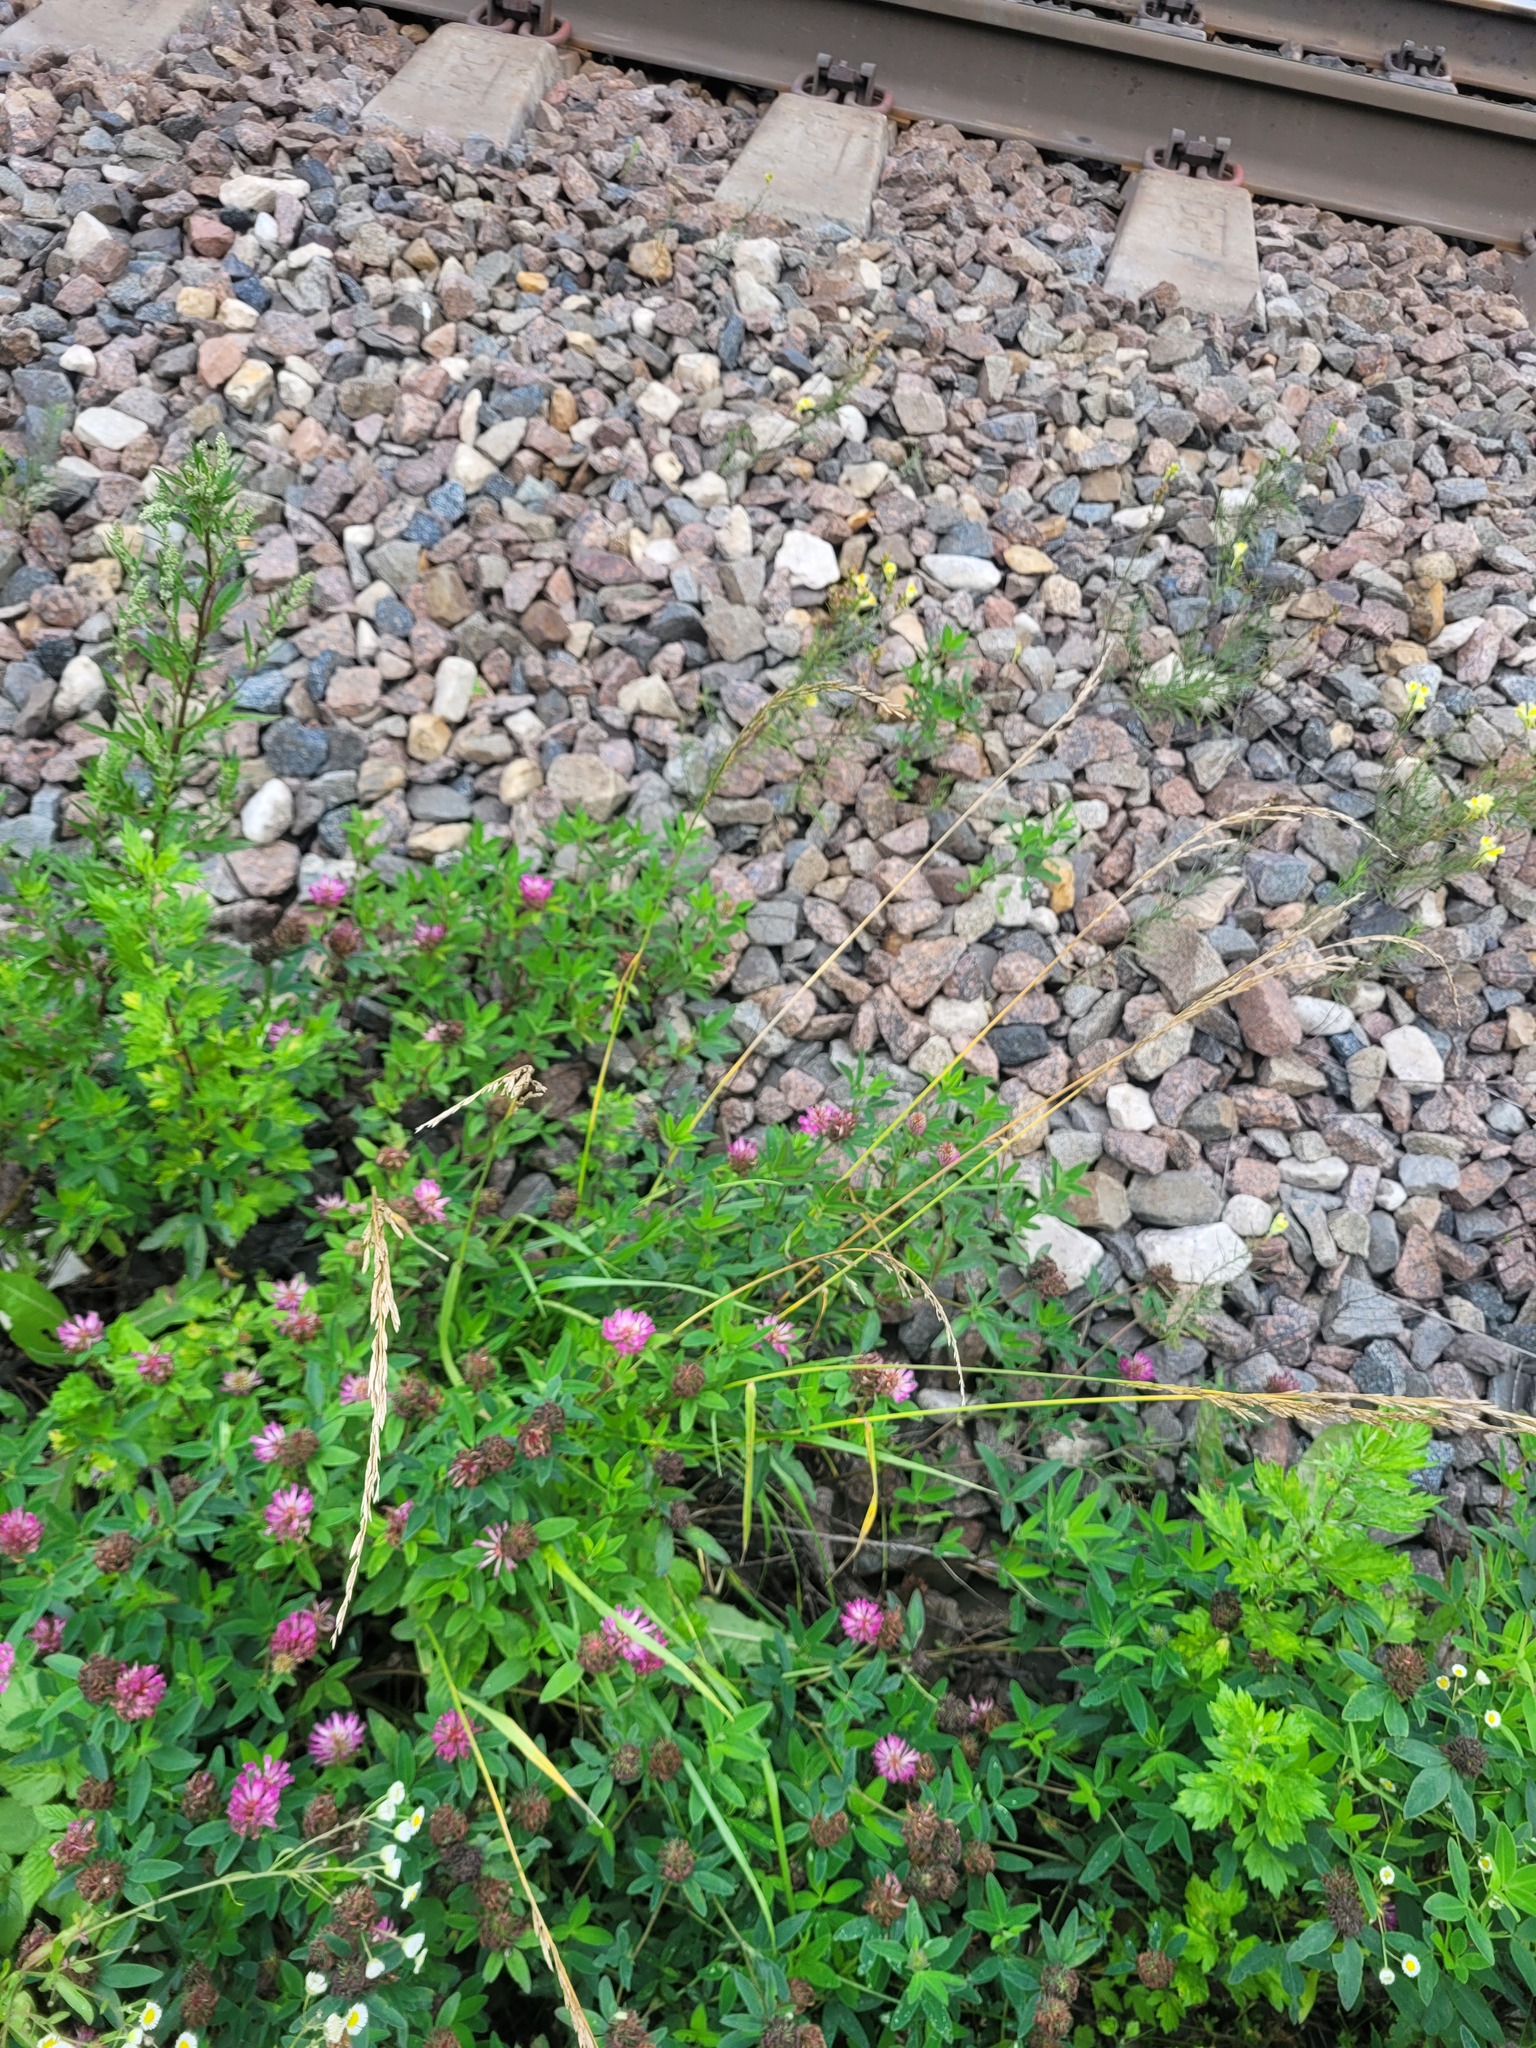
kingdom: Plantae
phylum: Tracheophyta
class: Magnoliopsida
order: Fabales
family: Fabaceae
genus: Trifolium
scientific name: Trifolium medium
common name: Zigzag clover
